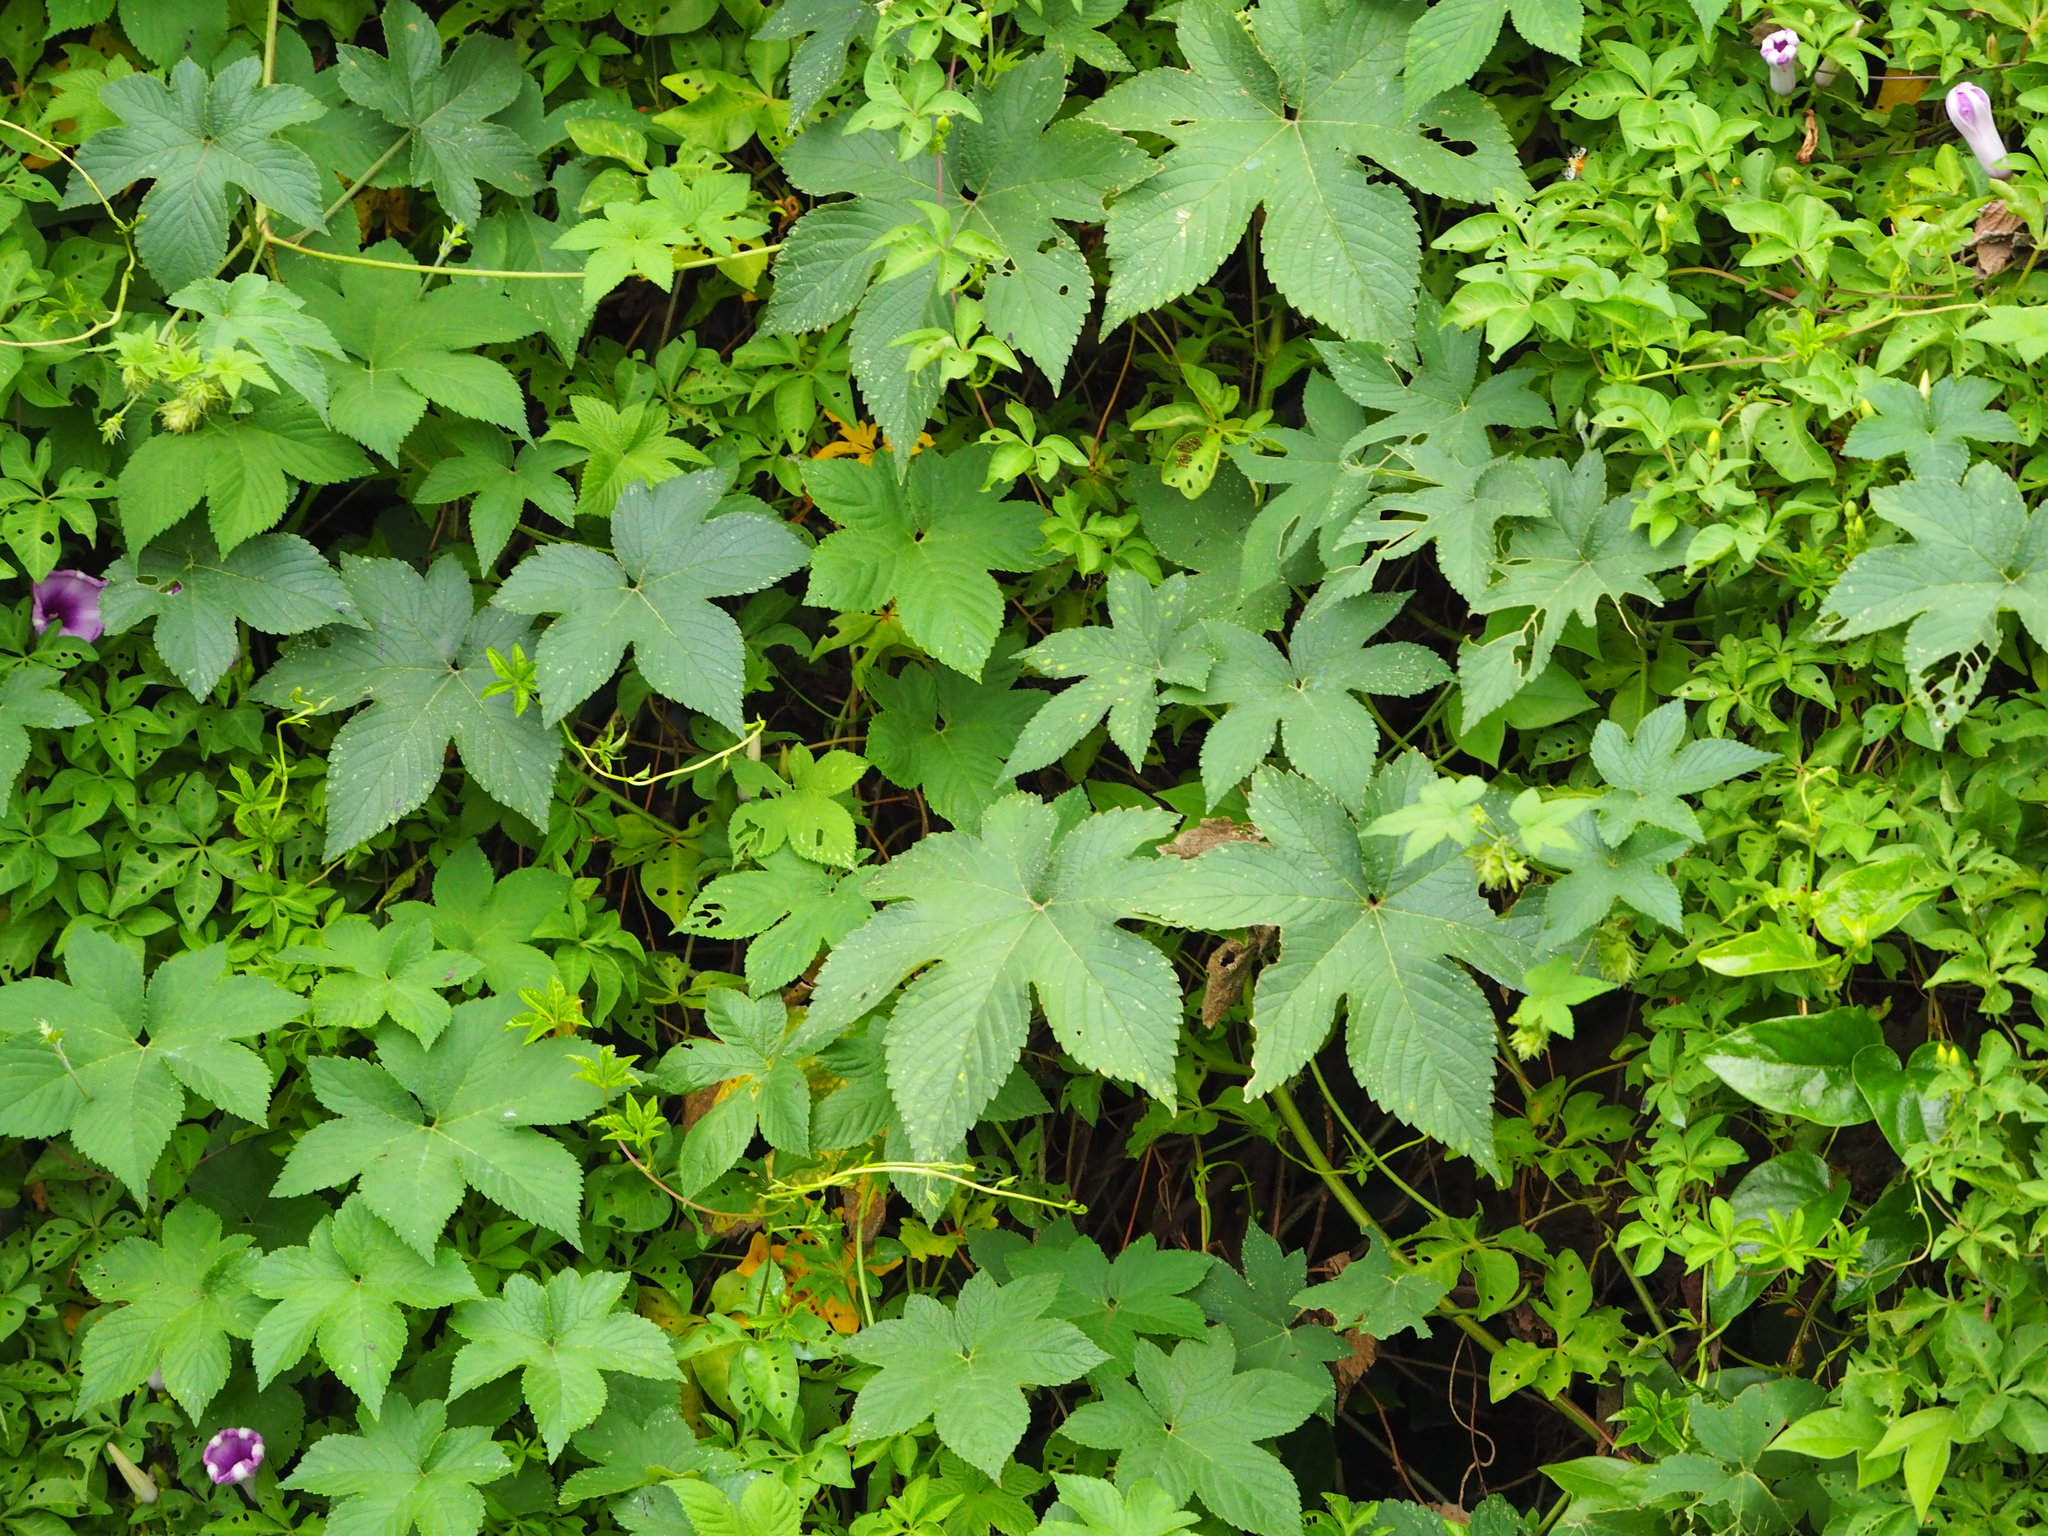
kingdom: Plantae
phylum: Tracheophyta
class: Magnoliopsida
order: Rosales
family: Cannabaceae
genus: Humulus
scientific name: Humulus scandens
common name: Japanese hop
